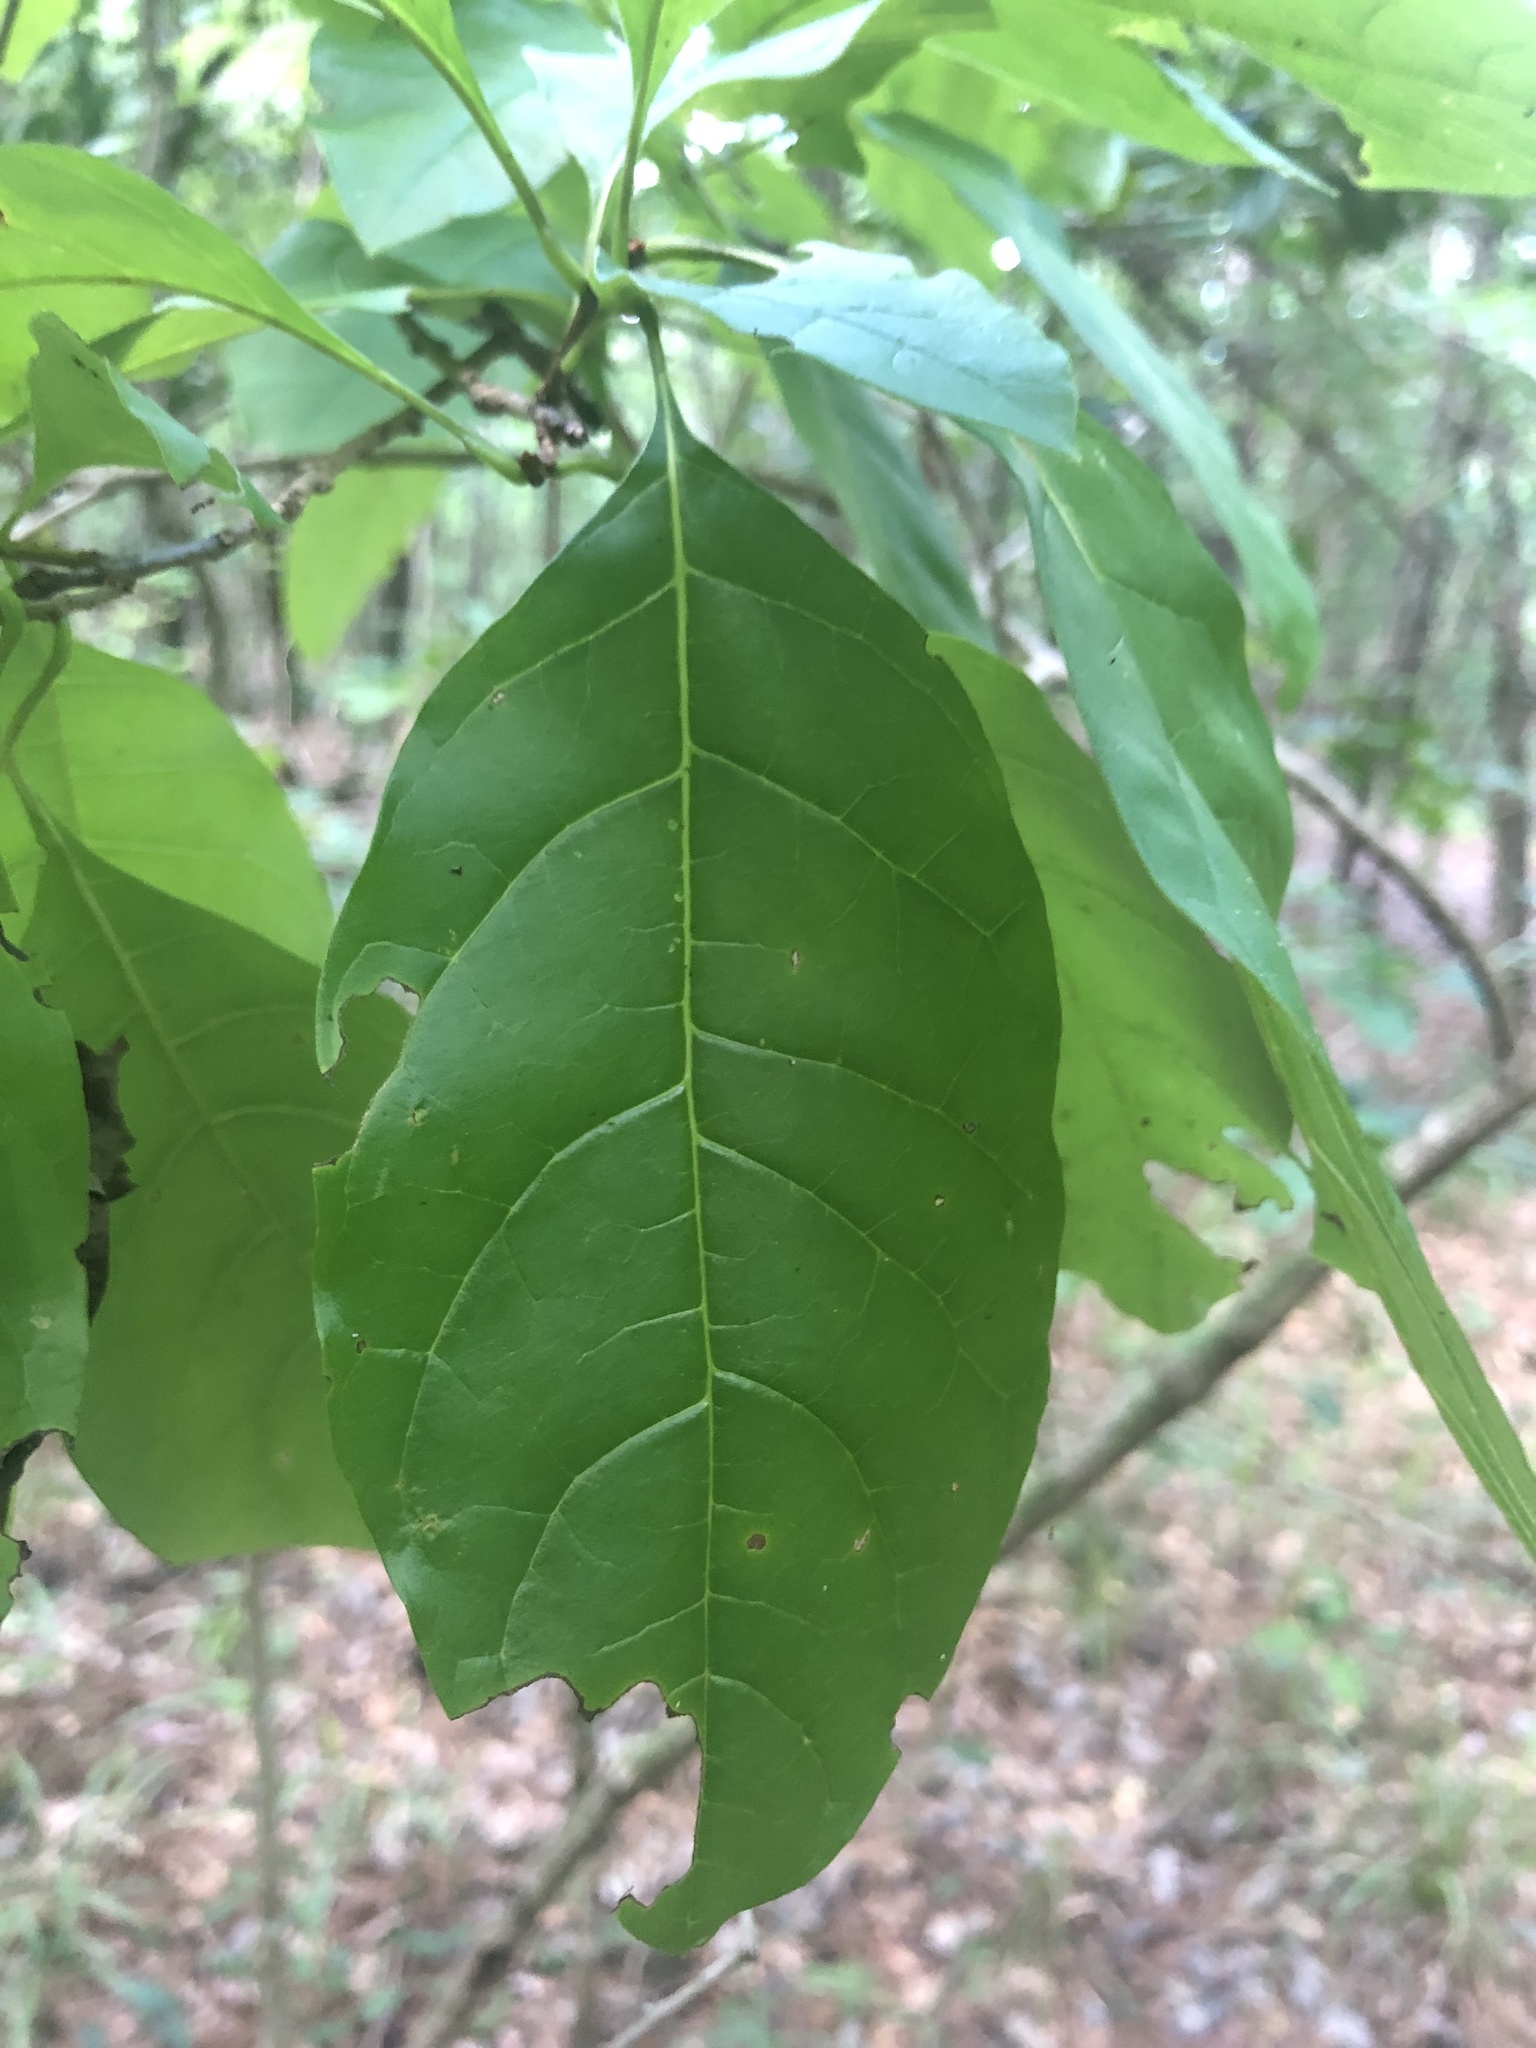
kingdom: Plantae
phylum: Tracheophyta
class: Magnoliopsida
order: Lamiales
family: Oleaceae
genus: Chionanthus
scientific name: Chionanthus virginicus
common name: American fringetree
